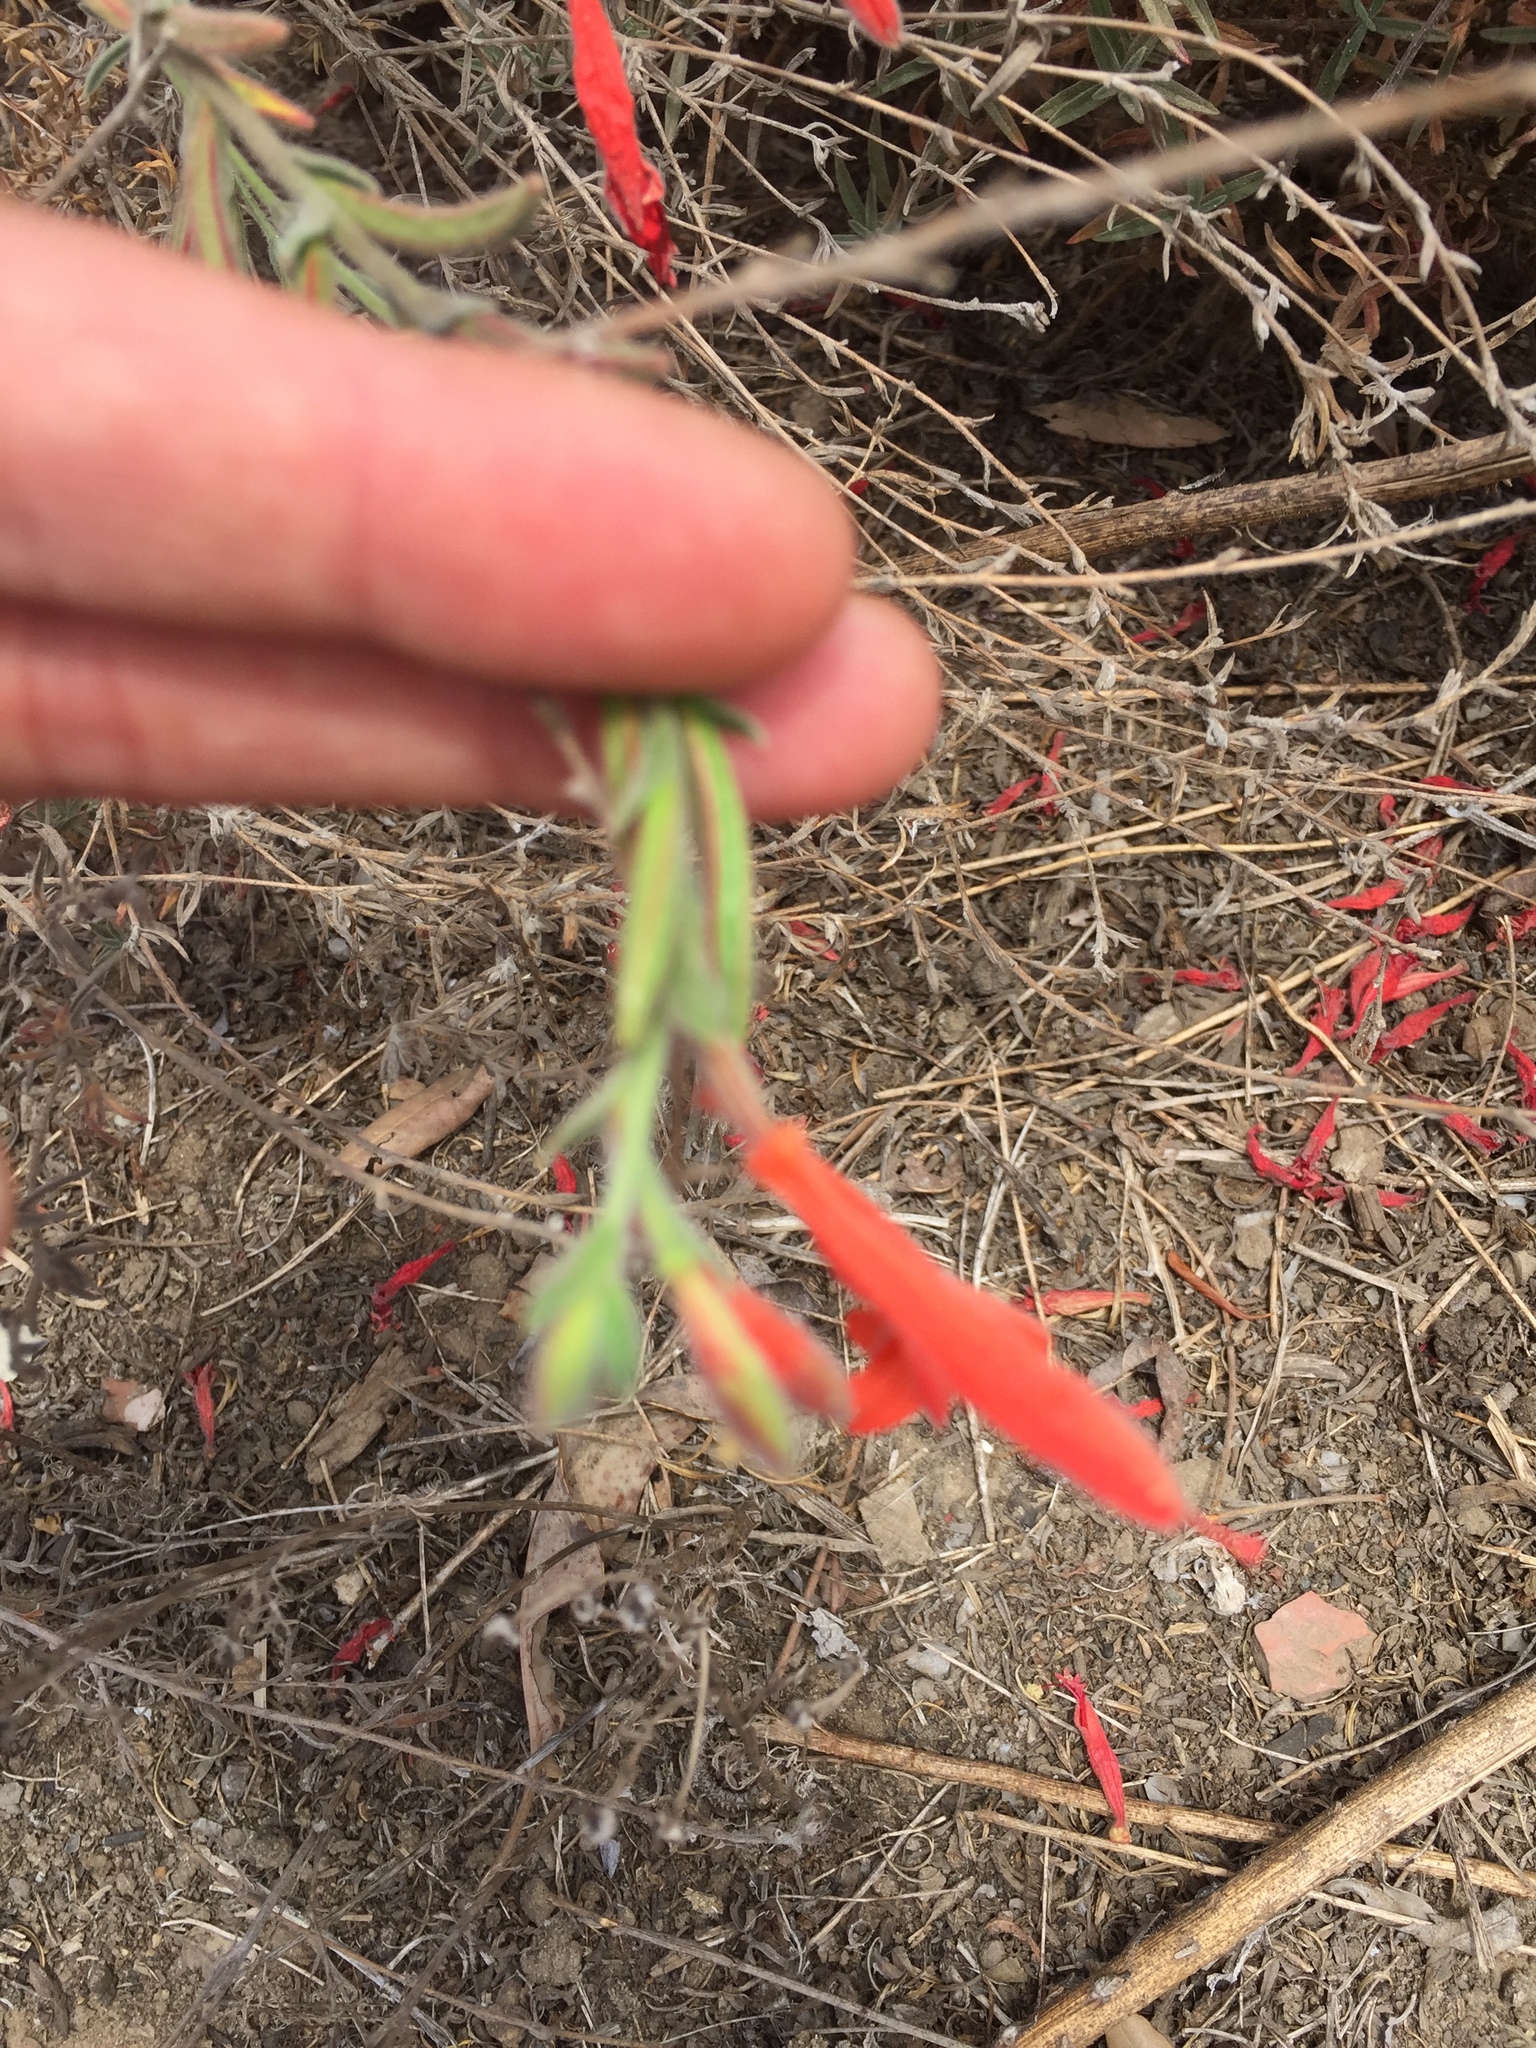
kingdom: Plantae
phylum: Tracheophyta
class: Magnoliopsida
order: Myrtales
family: Onagraceae
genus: Epilobium
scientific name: Epilobium canum
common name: California-fuchsia
